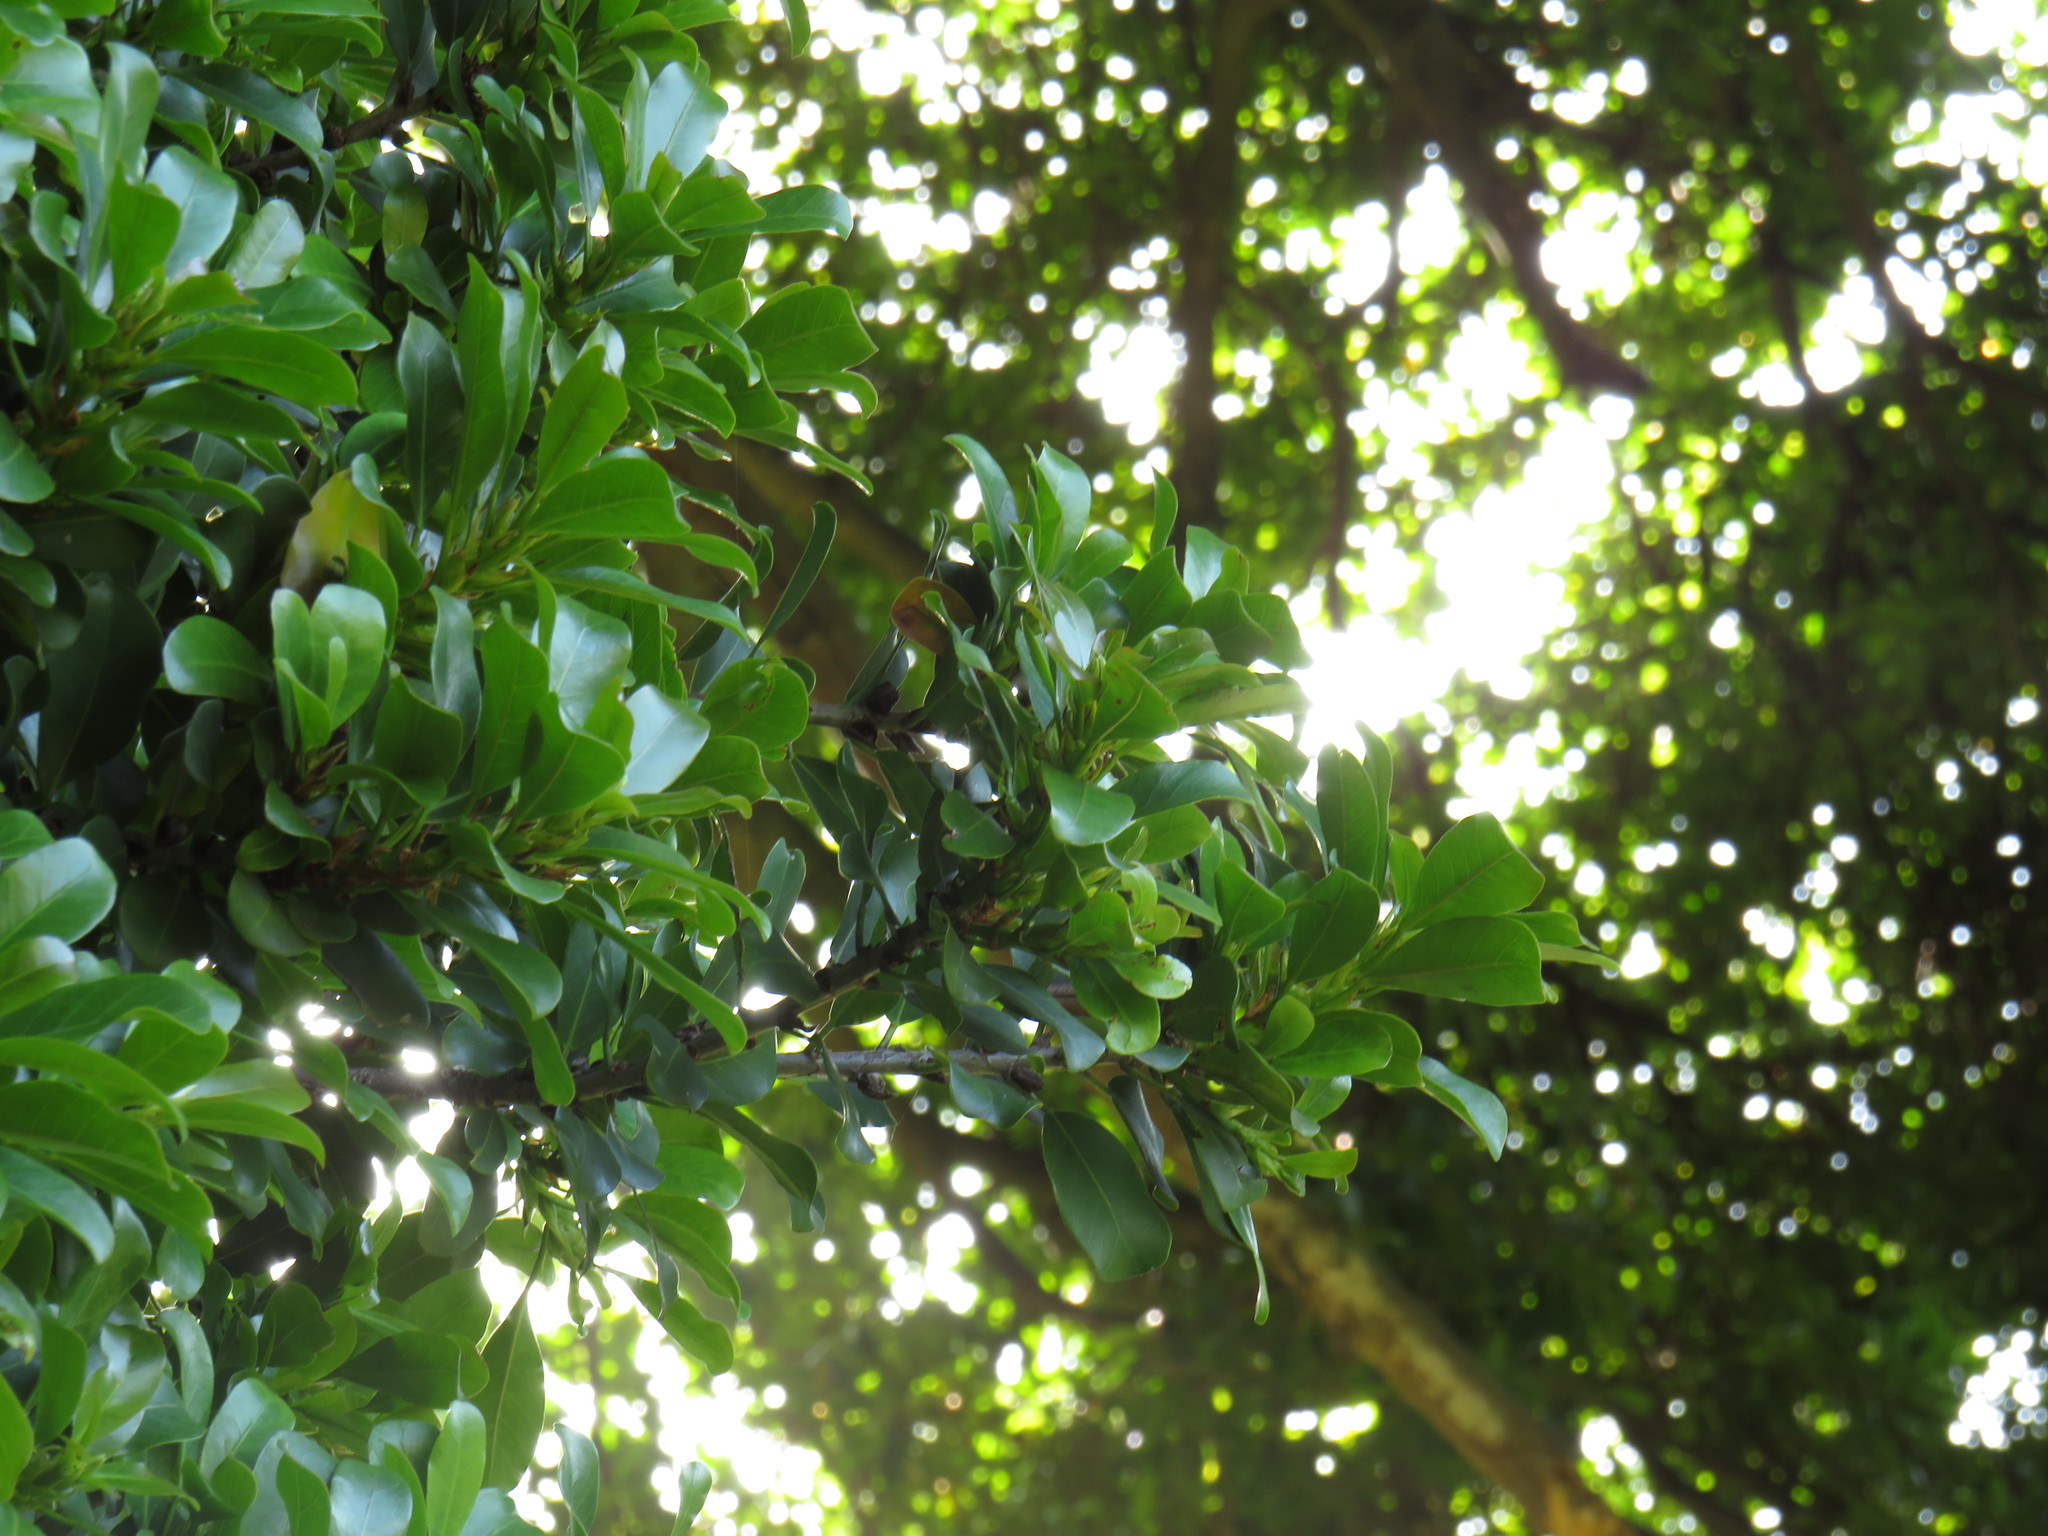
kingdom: Plantae
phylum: Tracheophyta
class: Magnoliopsida
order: Rosales
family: Moraceae
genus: Ficus
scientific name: Ficus craterostoma
